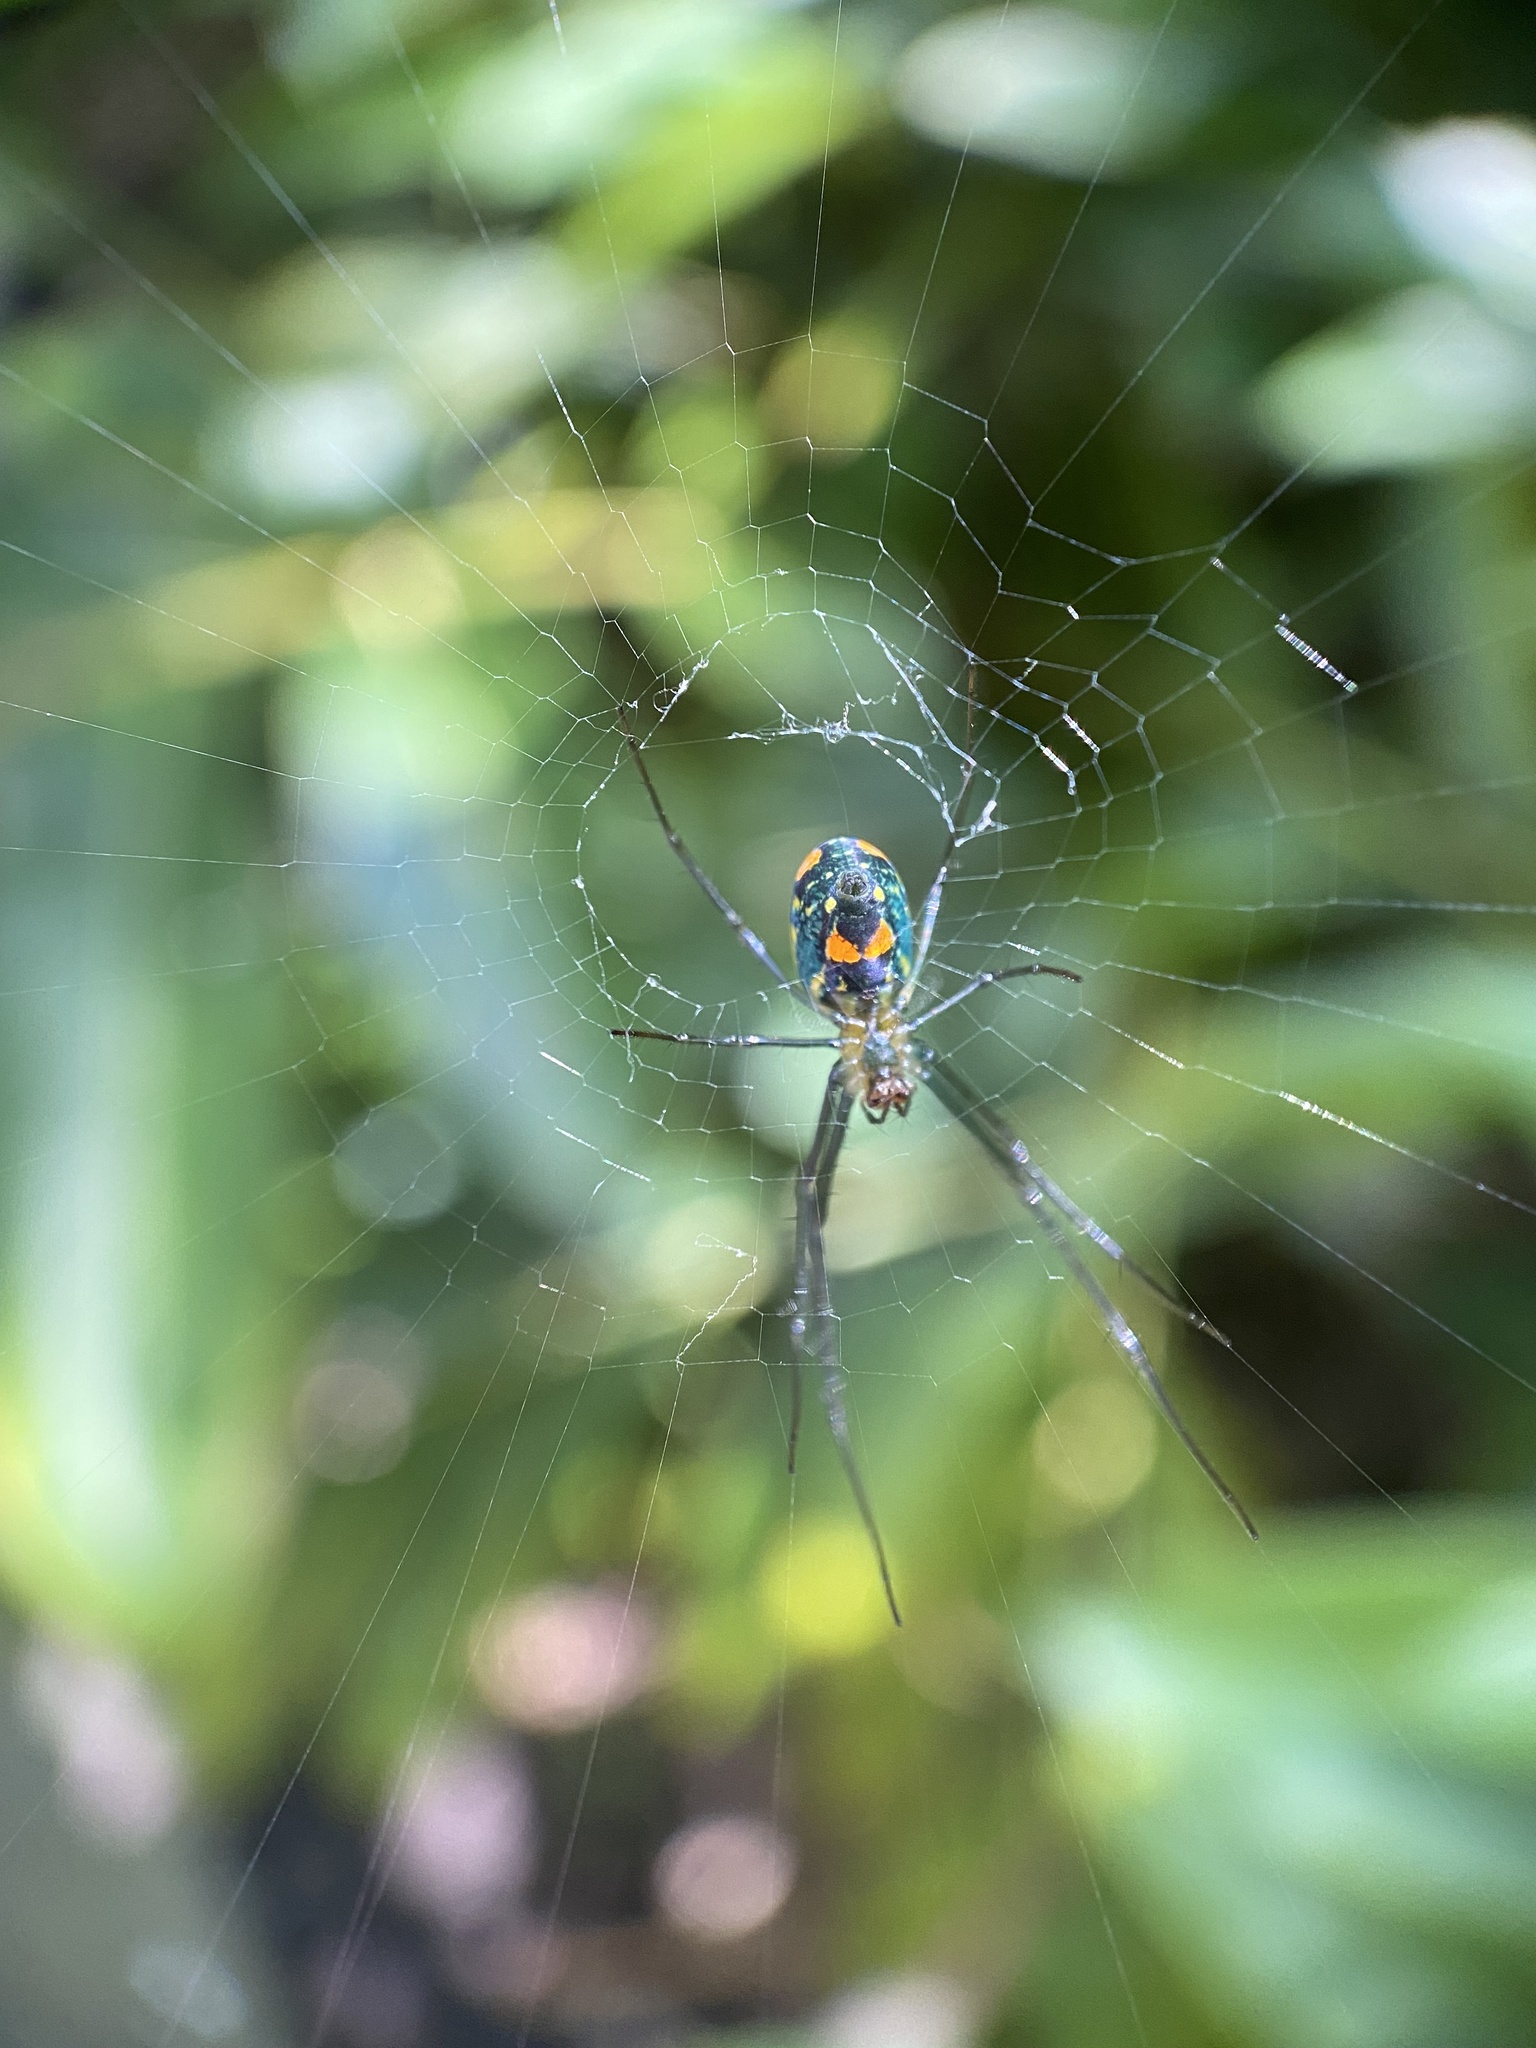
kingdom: Animalia
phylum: Arthropoda
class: Arachnida
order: Araneae
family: Tetragnathidae
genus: Leucauge
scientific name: Leucauge argyrobapta
